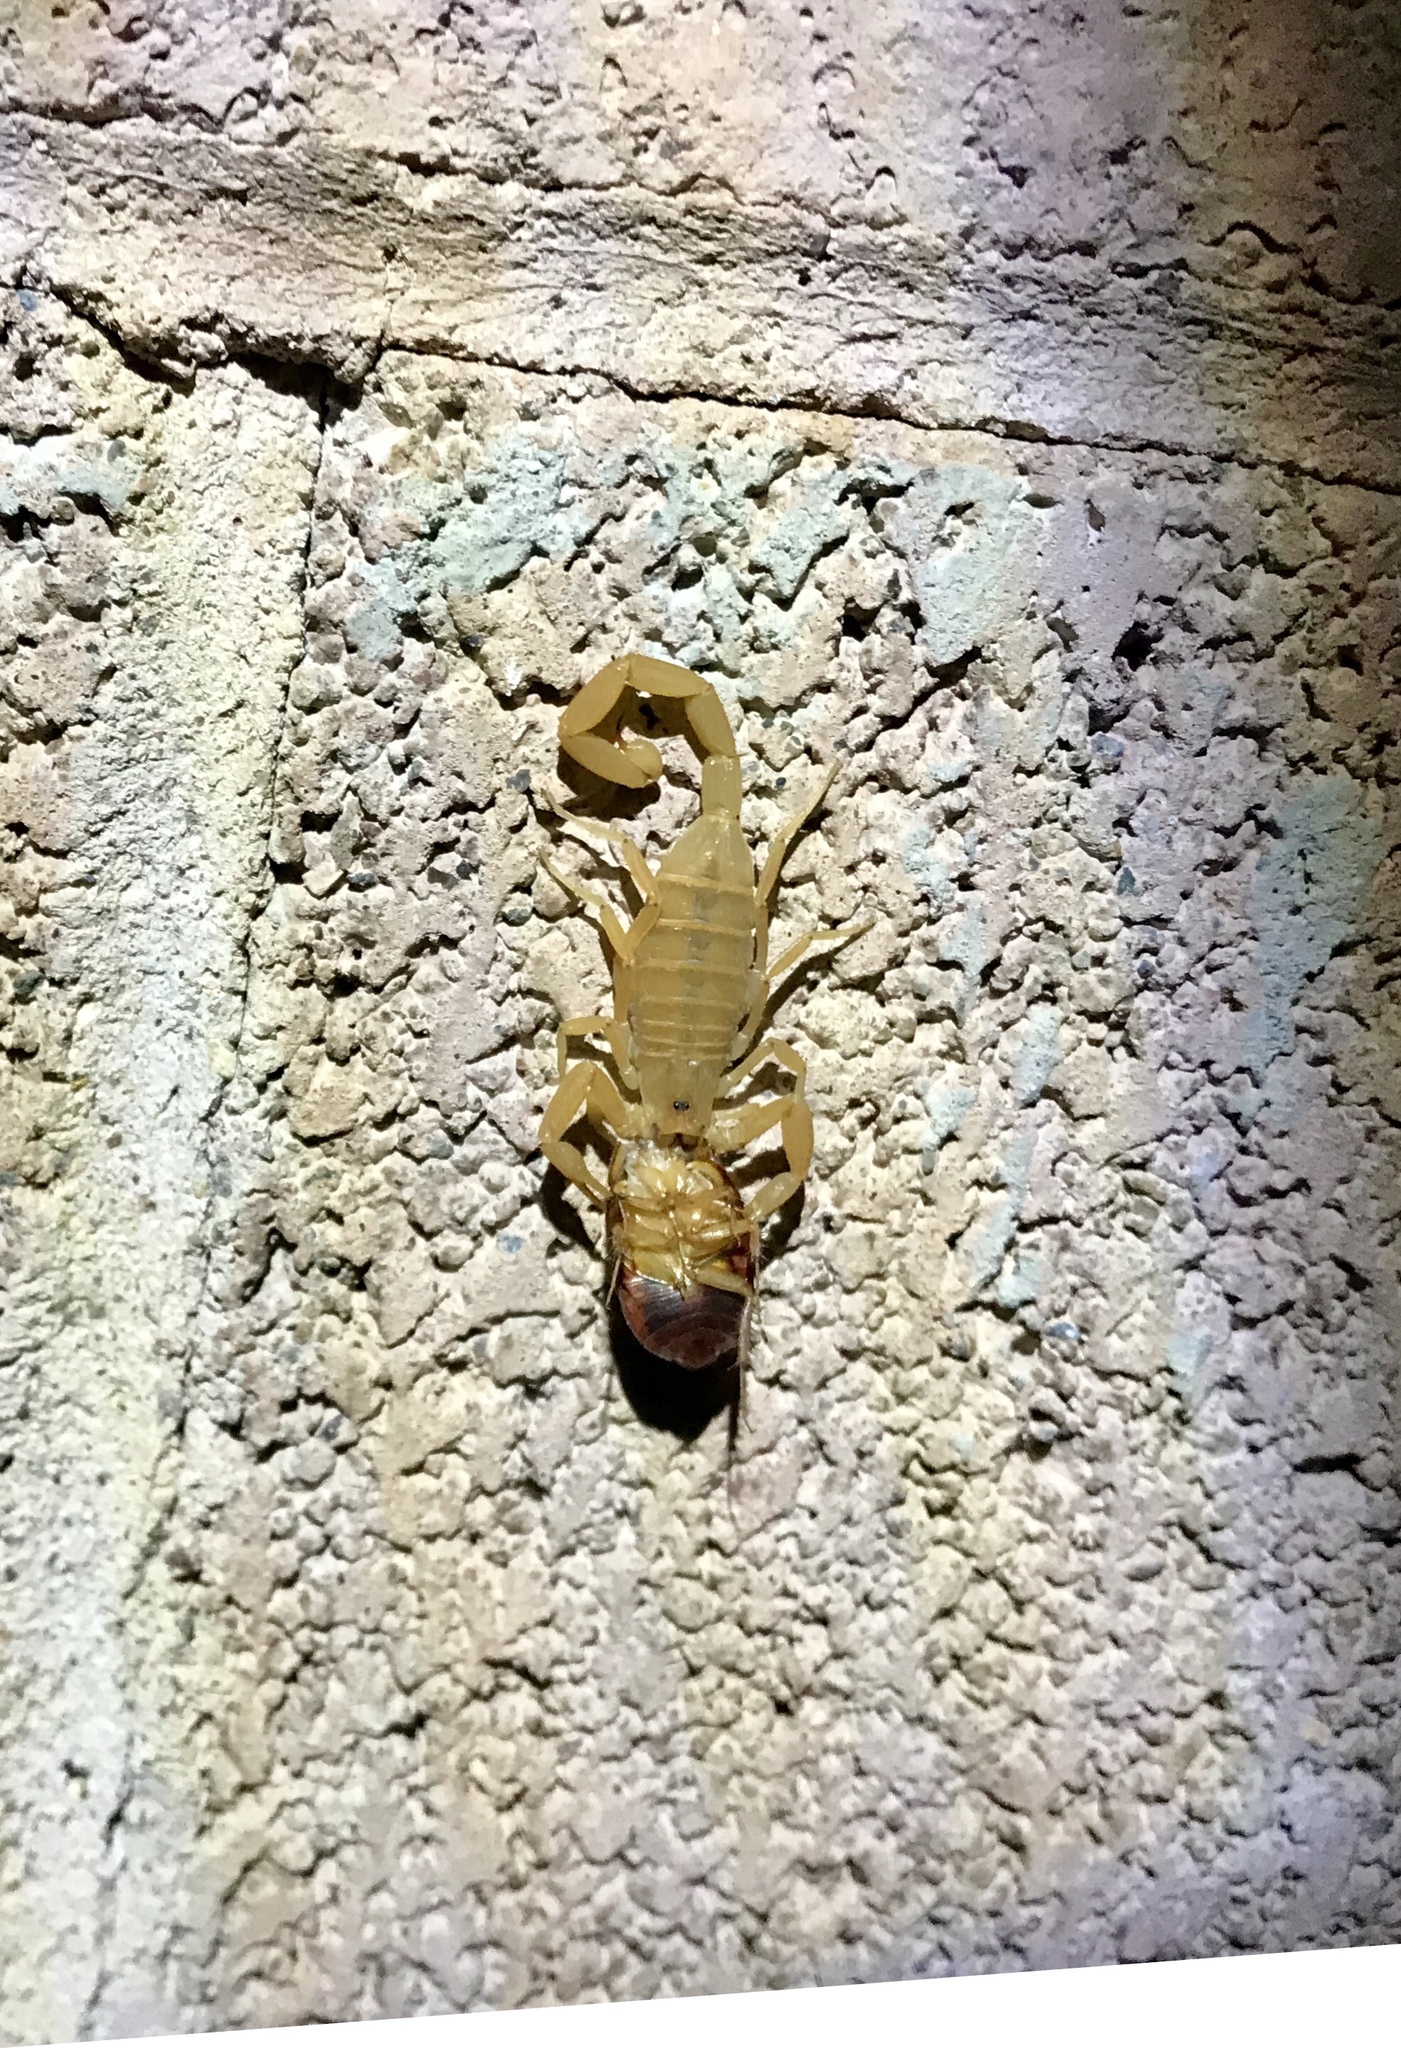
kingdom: Animalia
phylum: Arthropoda
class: Arachnida
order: Scorpiones
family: Buthidae
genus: Centruroides
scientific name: Centruroides sculpturatus
